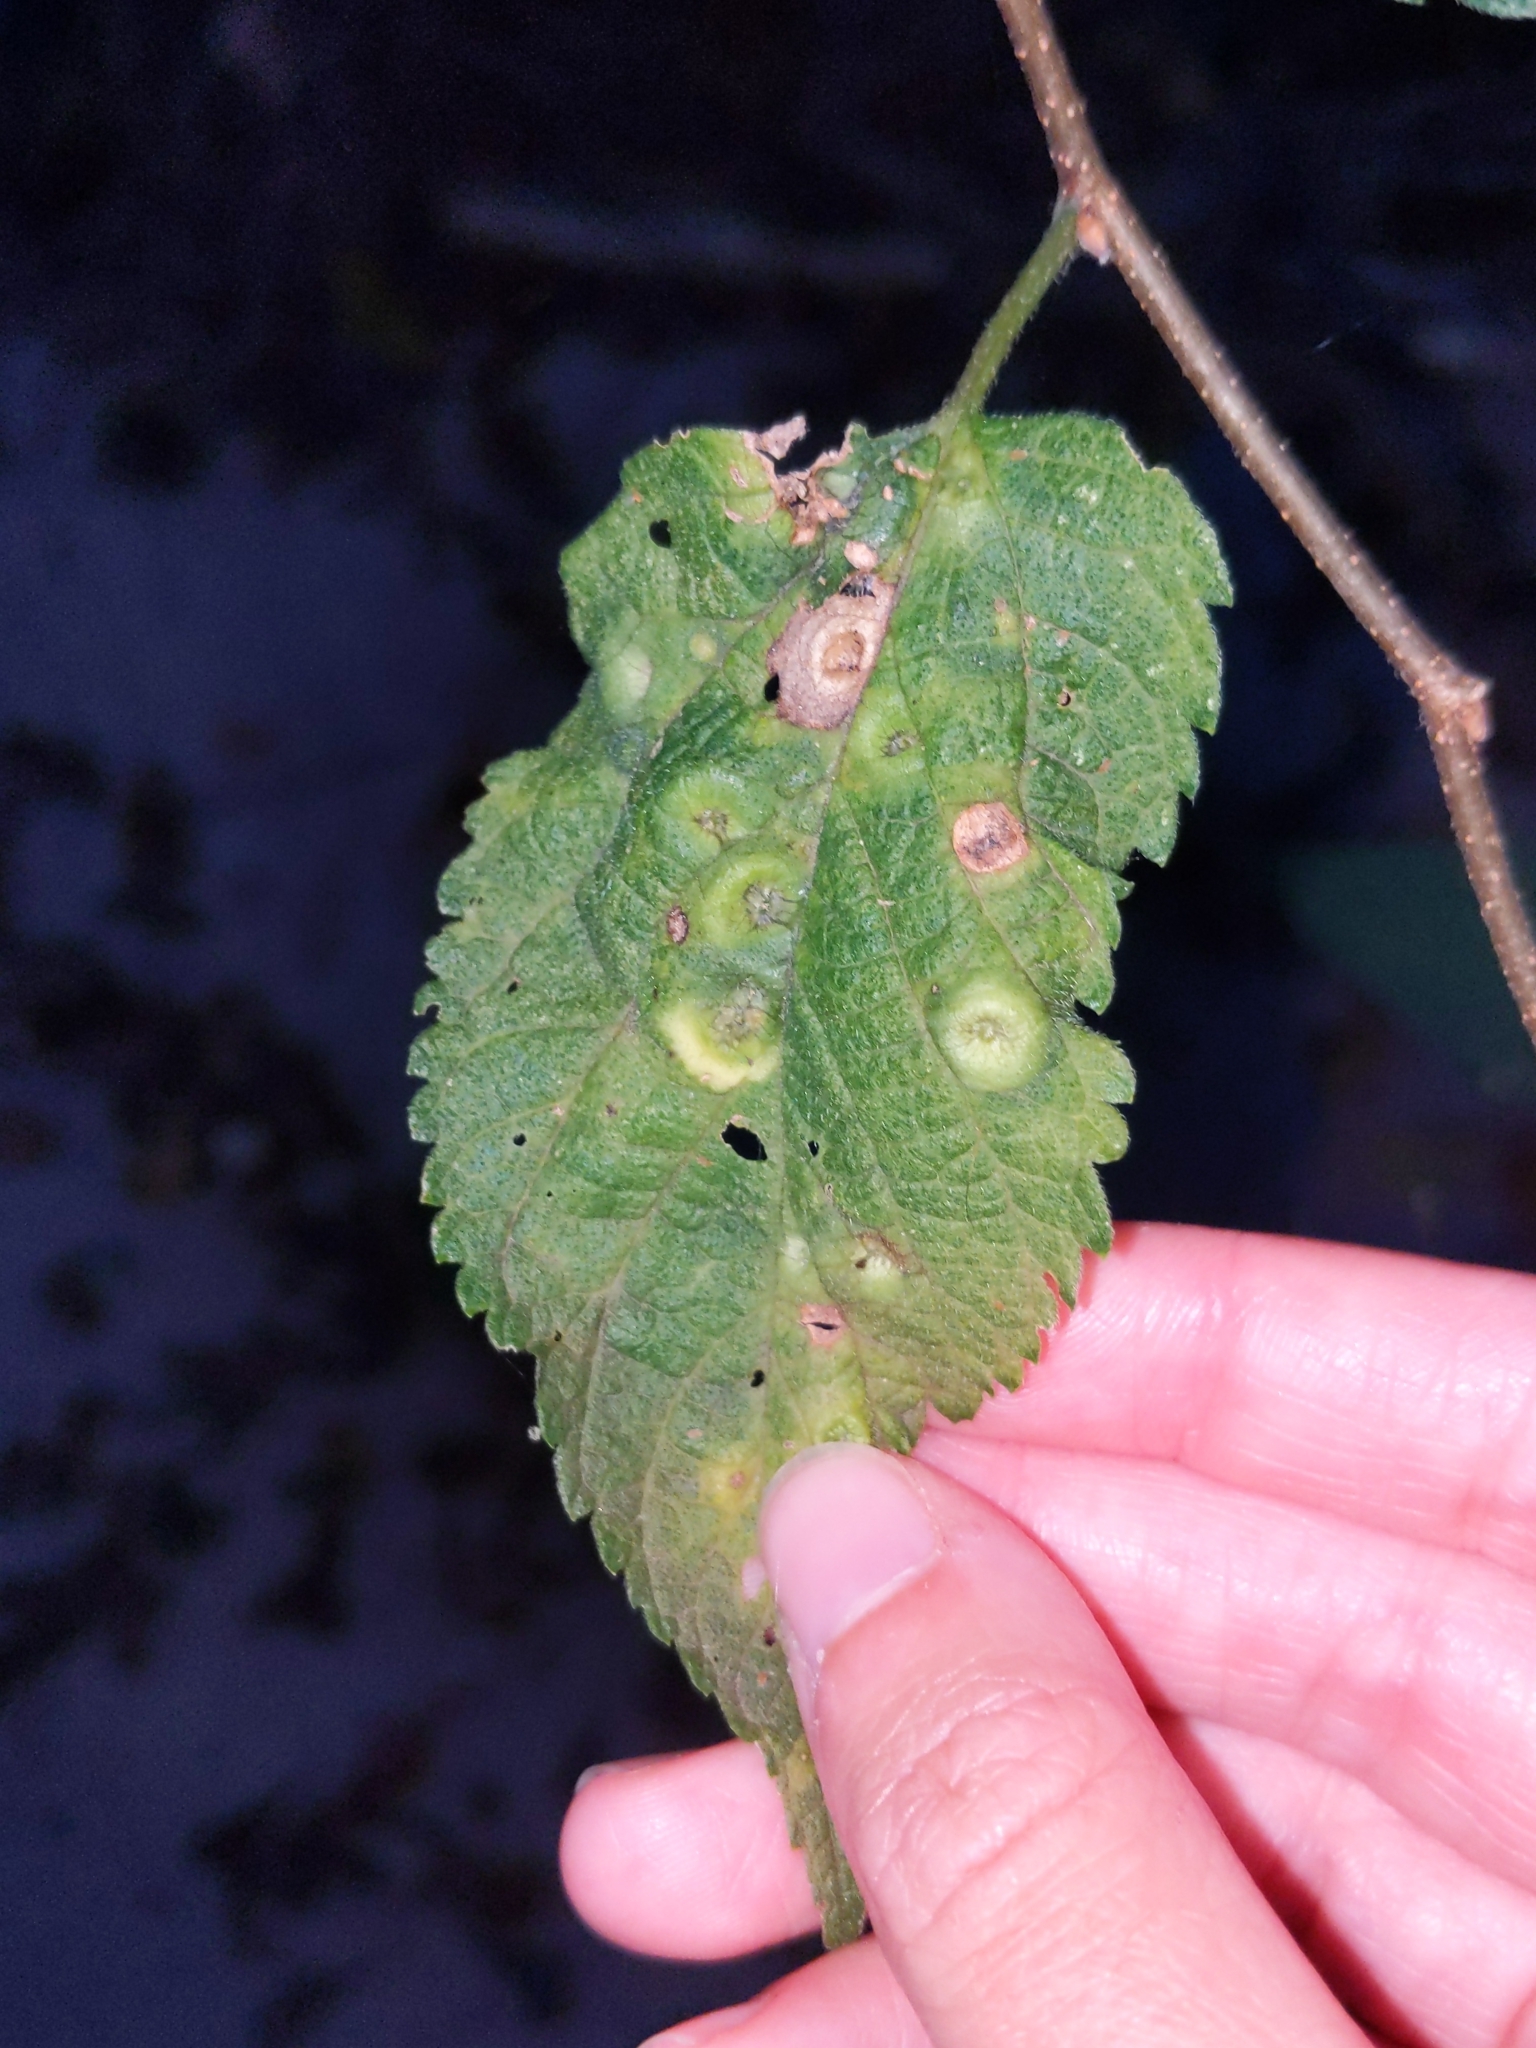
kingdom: Animalia
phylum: Arthropoda
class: Insecta
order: Hemiptera
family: Aphalaridae
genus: Pachypsylla
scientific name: Pachypsylla celtidisumbilicus
